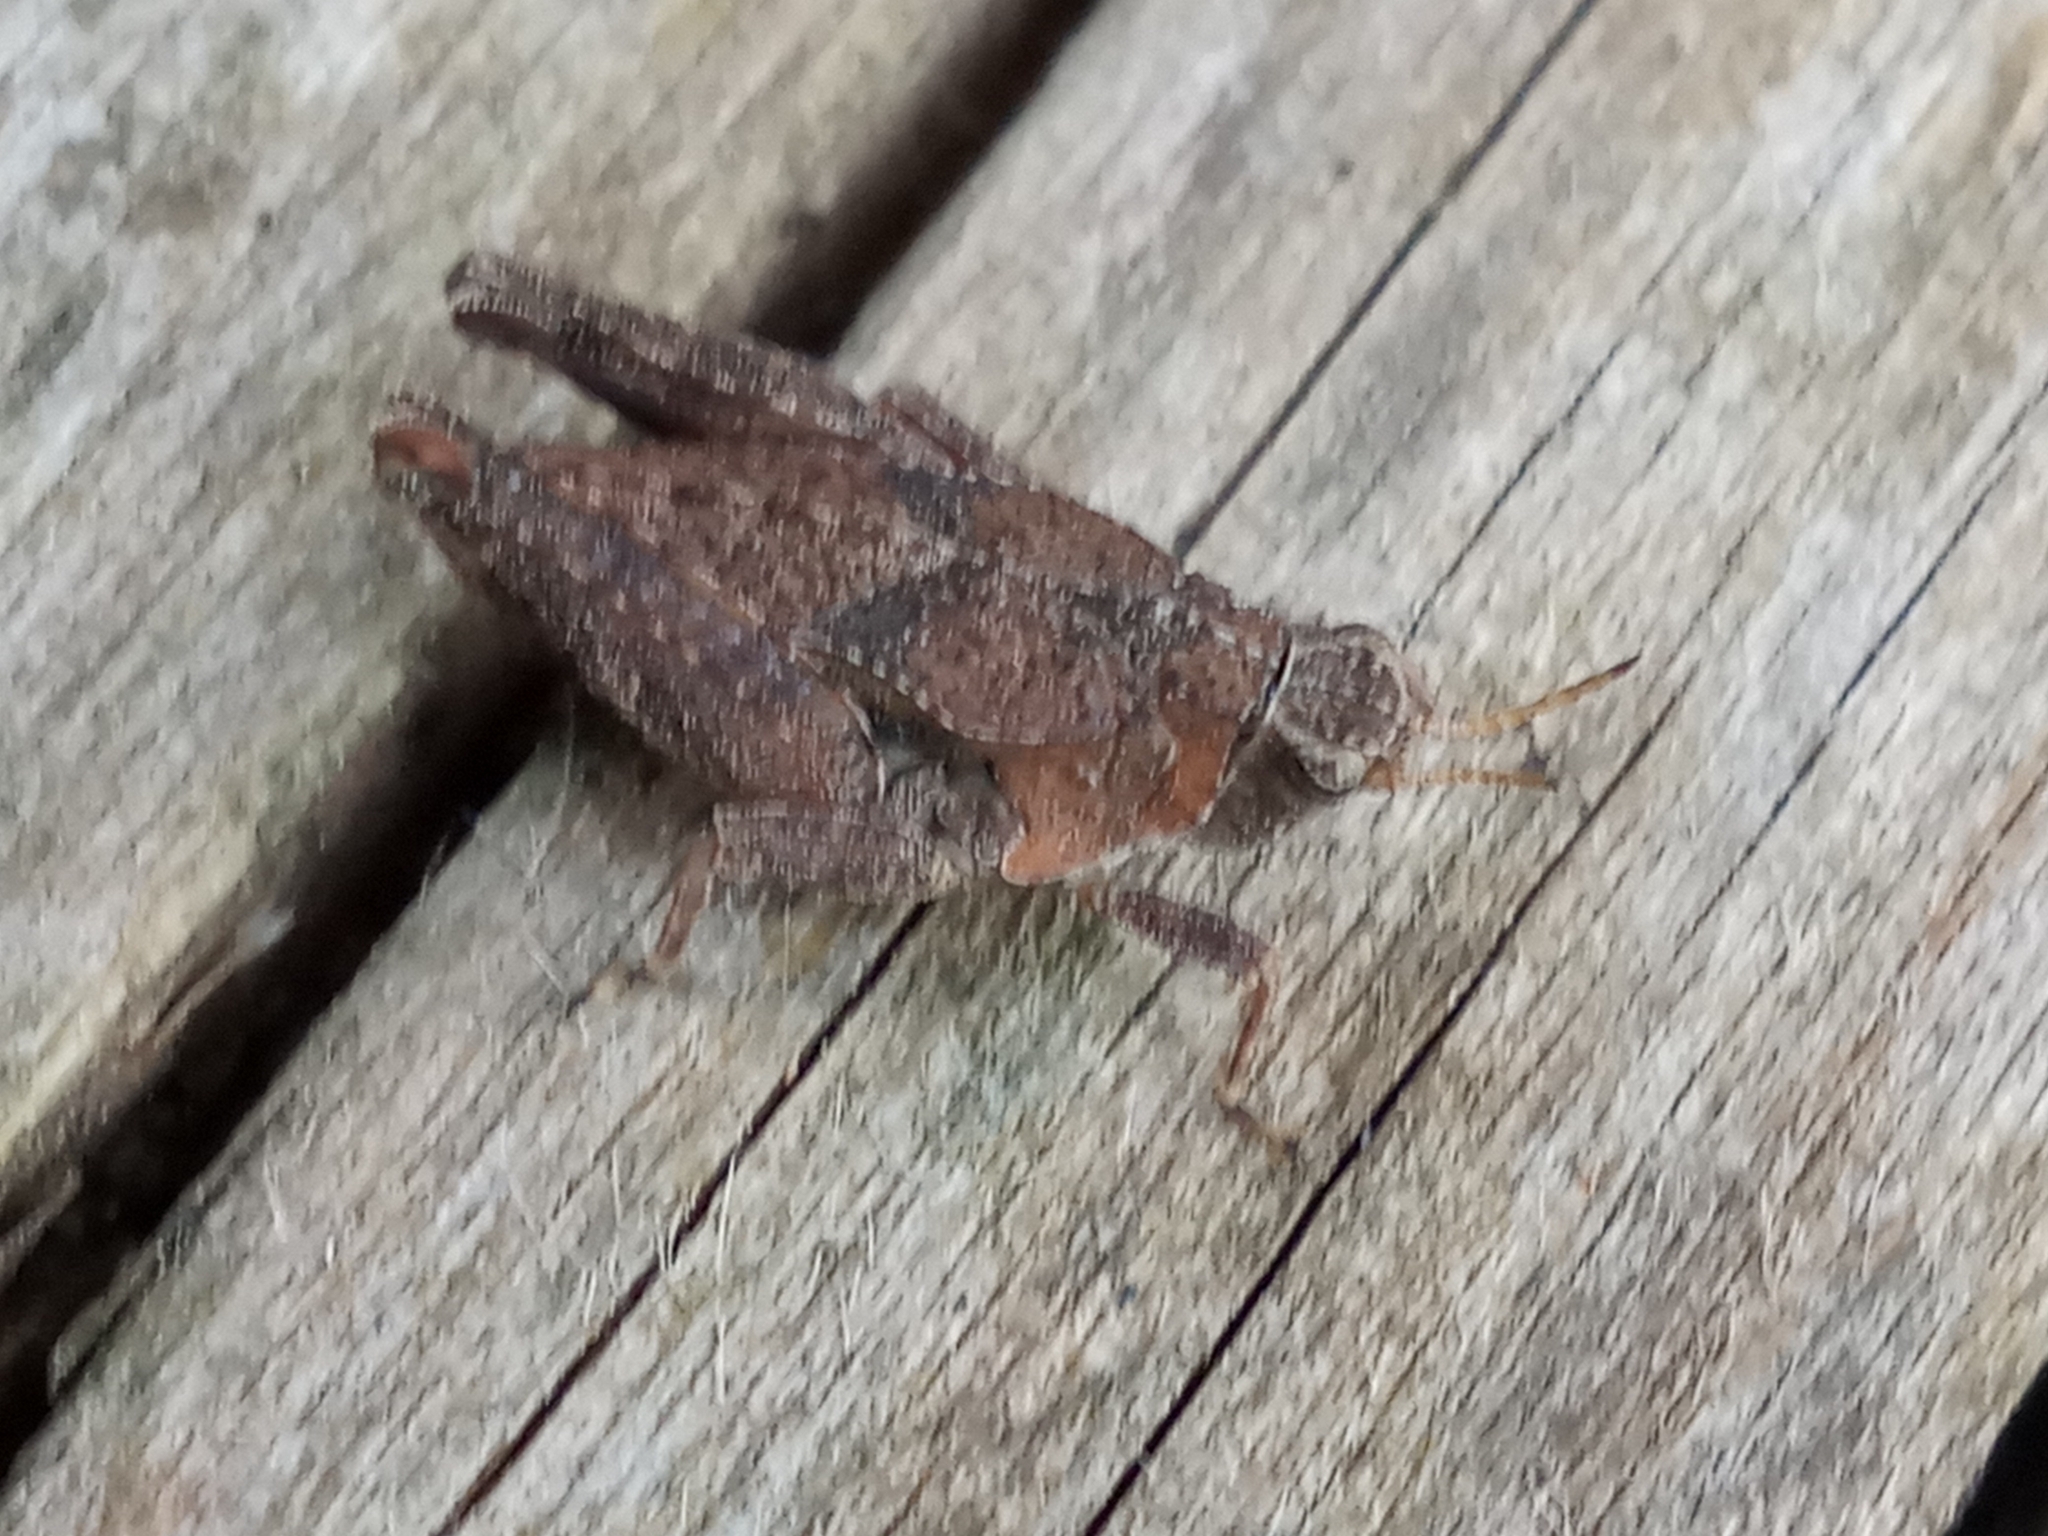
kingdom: Animalia
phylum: Arthropoda
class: Insecta
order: Orthoptera
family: Tetrigidae
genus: Tetrix
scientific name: Tetrix
